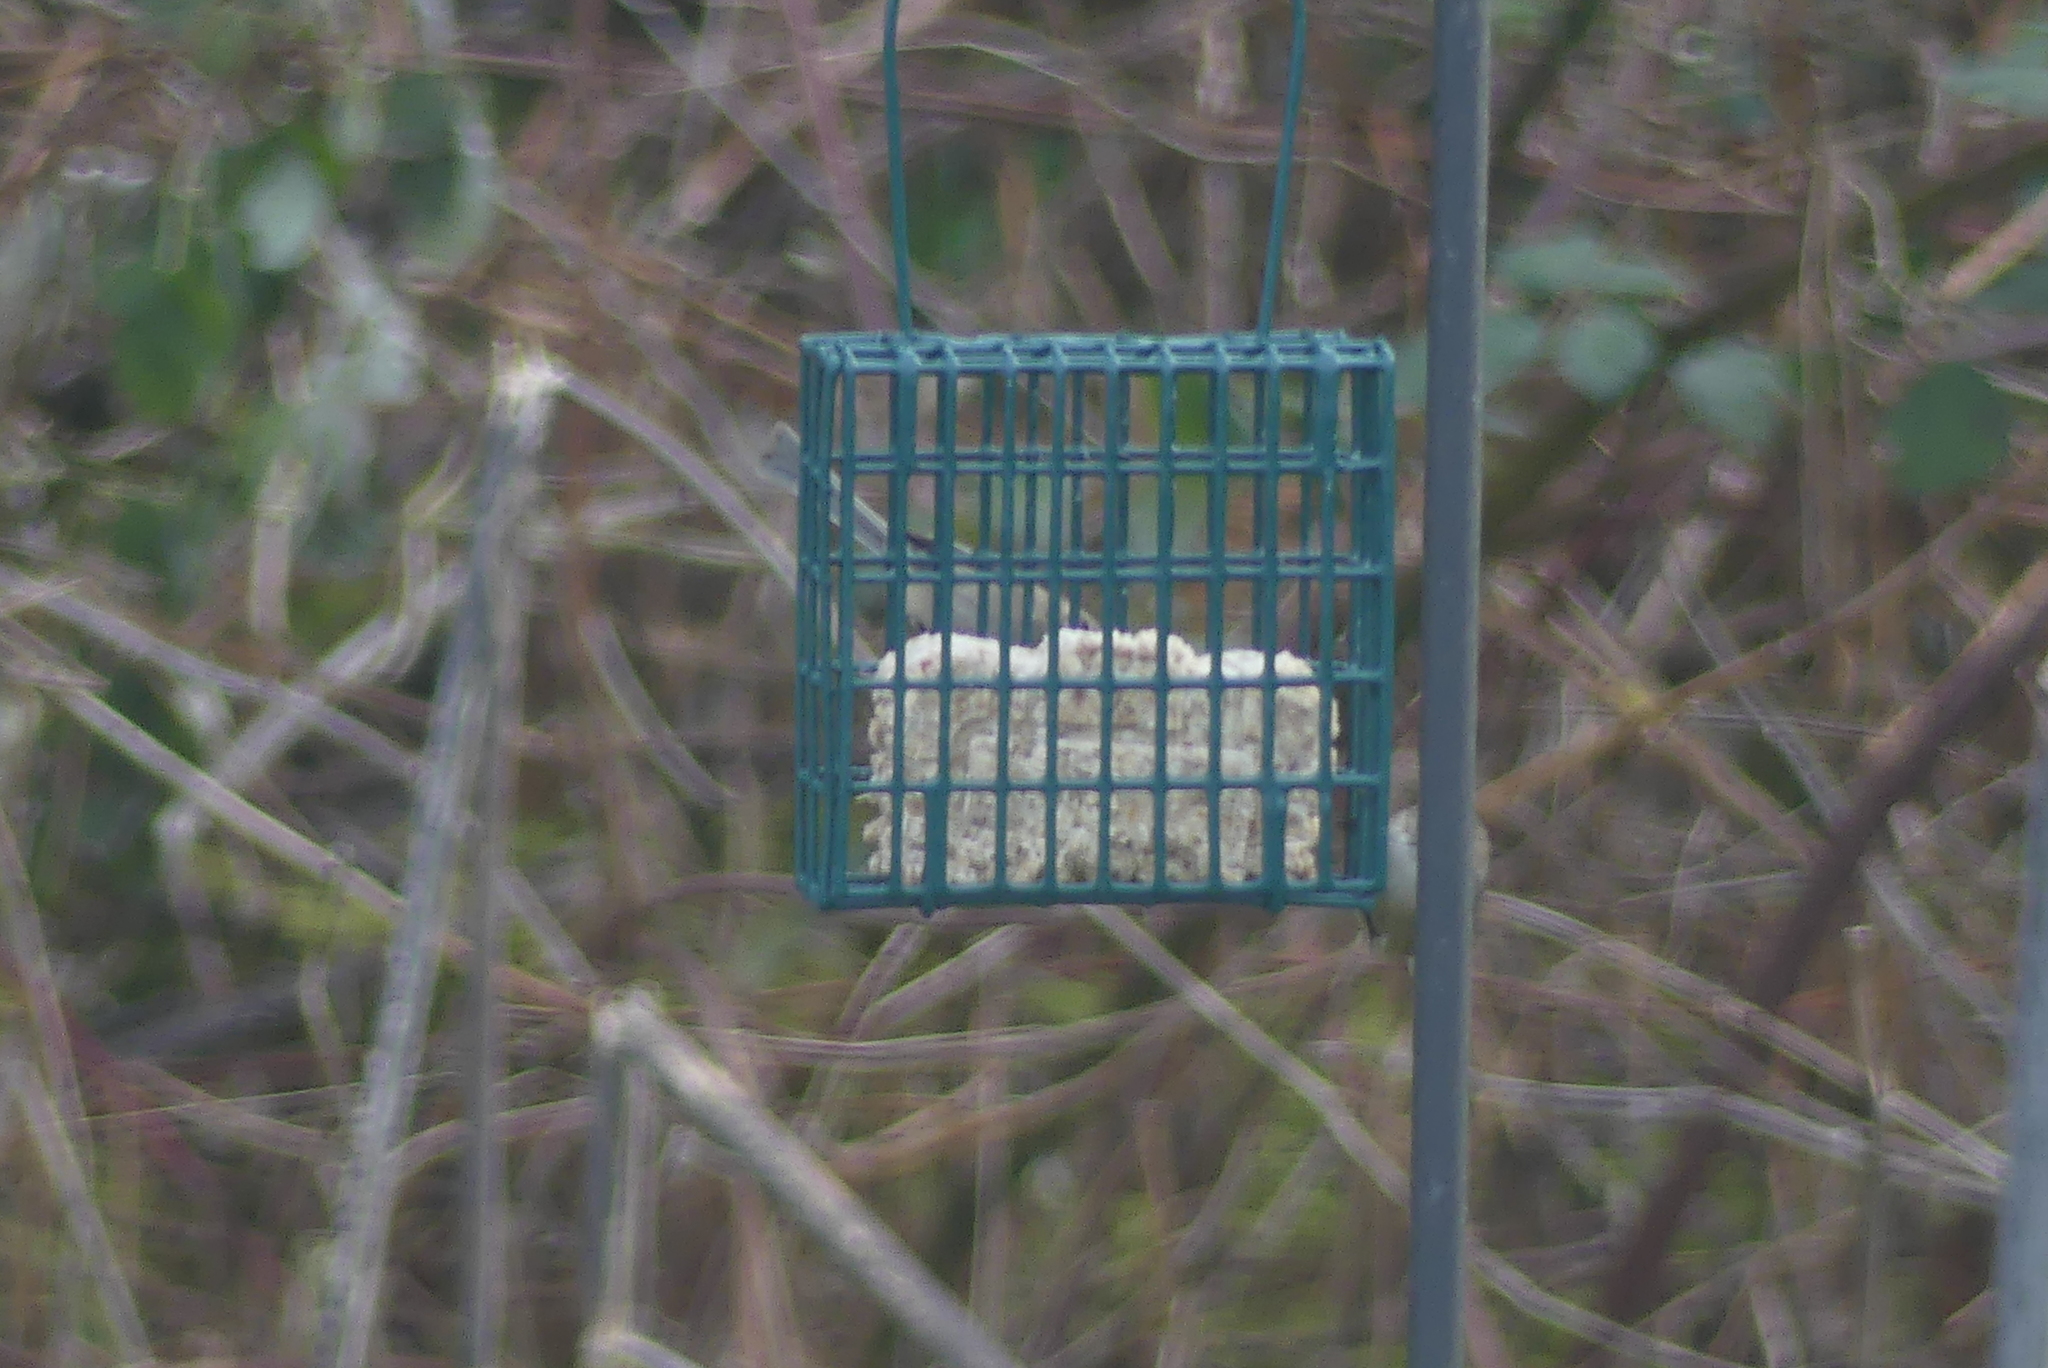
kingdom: Animalia
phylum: Chordata
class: Aves
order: Passeriformes
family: Aegithalidae
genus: Psaltriparus
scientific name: Psaltriparus minimus
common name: American bushtit
